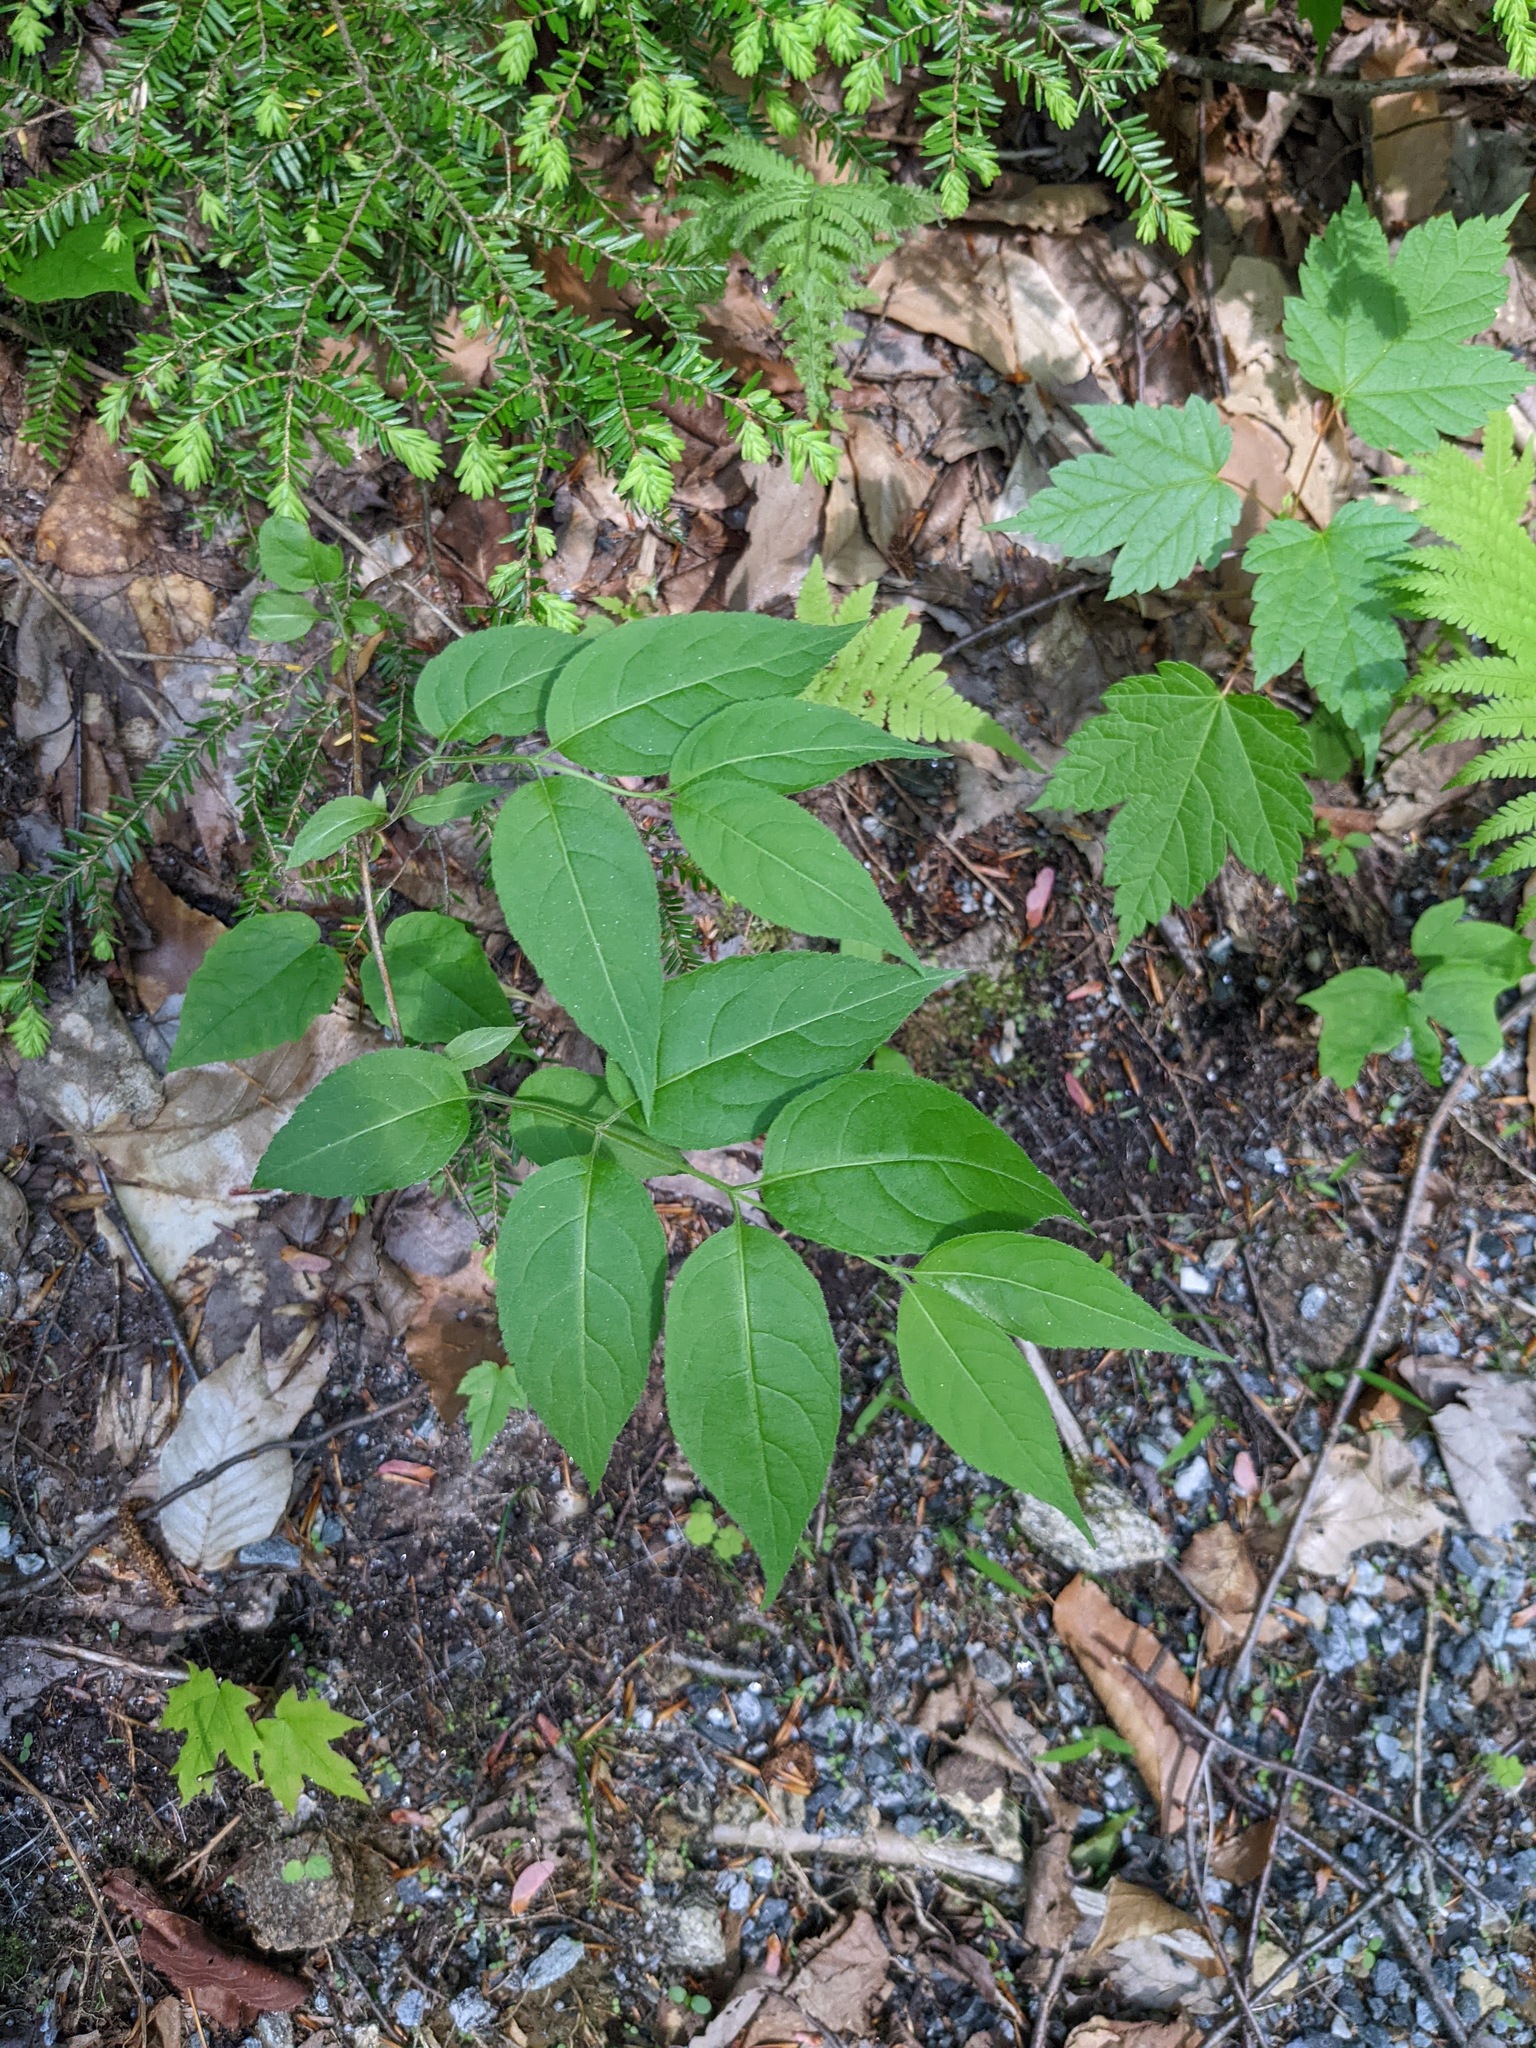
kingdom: Plantae
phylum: Tracheophyta
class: Magnoliopsida
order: Dipsacales
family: Caprifoliaceae
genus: Diervilla
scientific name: Diervilla lonicera
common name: Bush-honeysuckle
